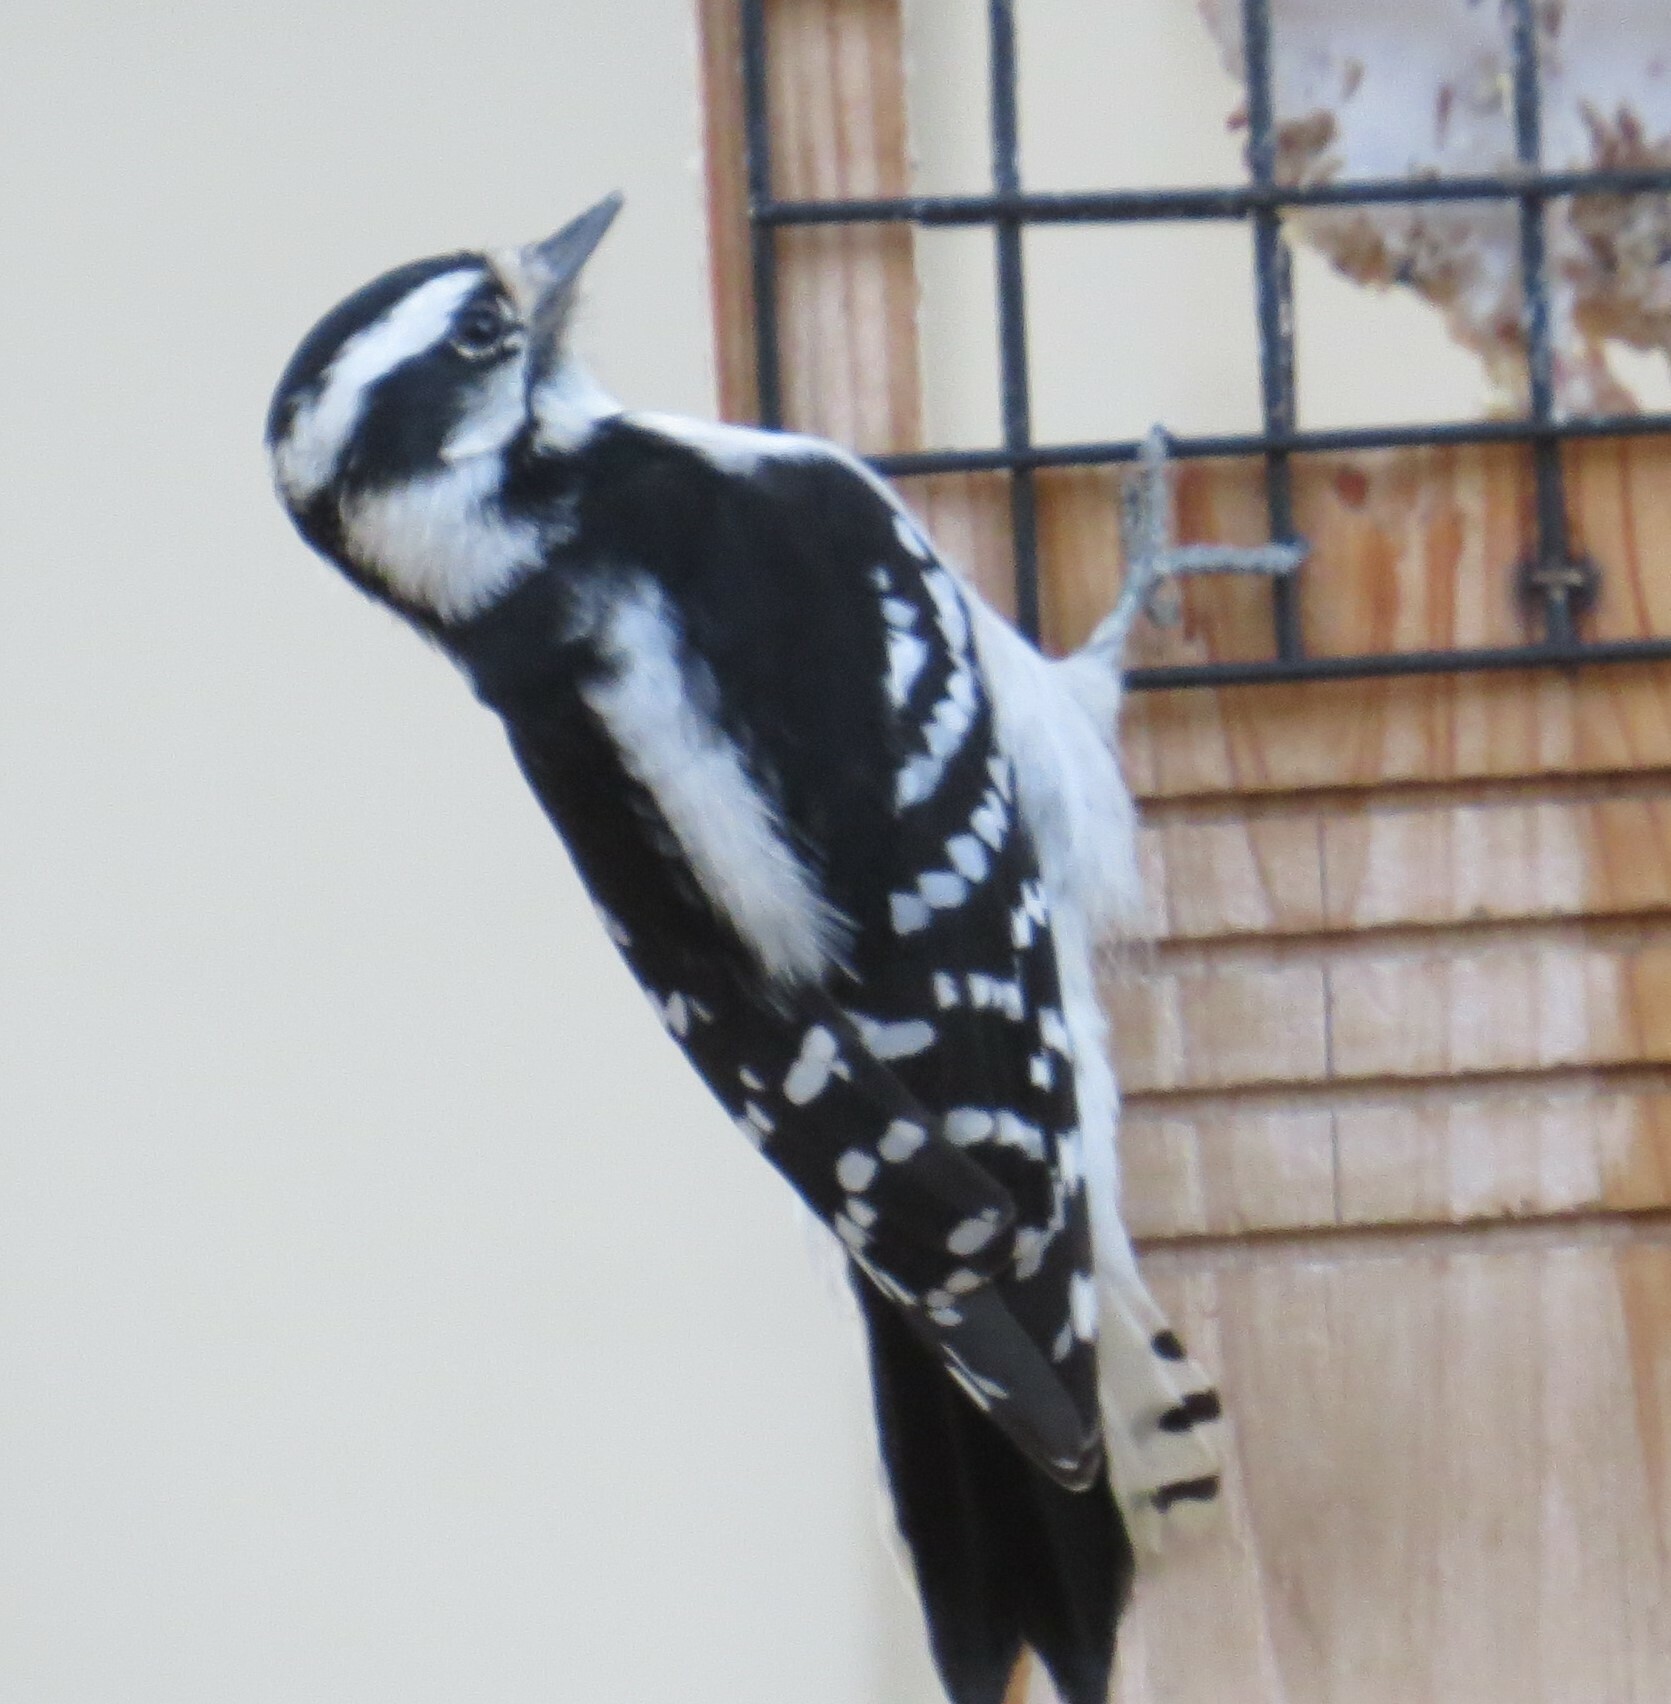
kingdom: Animalia
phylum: Chordata
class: Aves
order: Piciformes
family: Picidae
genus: Dryobates
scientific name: Dryobates pubescens
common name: Downy woodpecker
